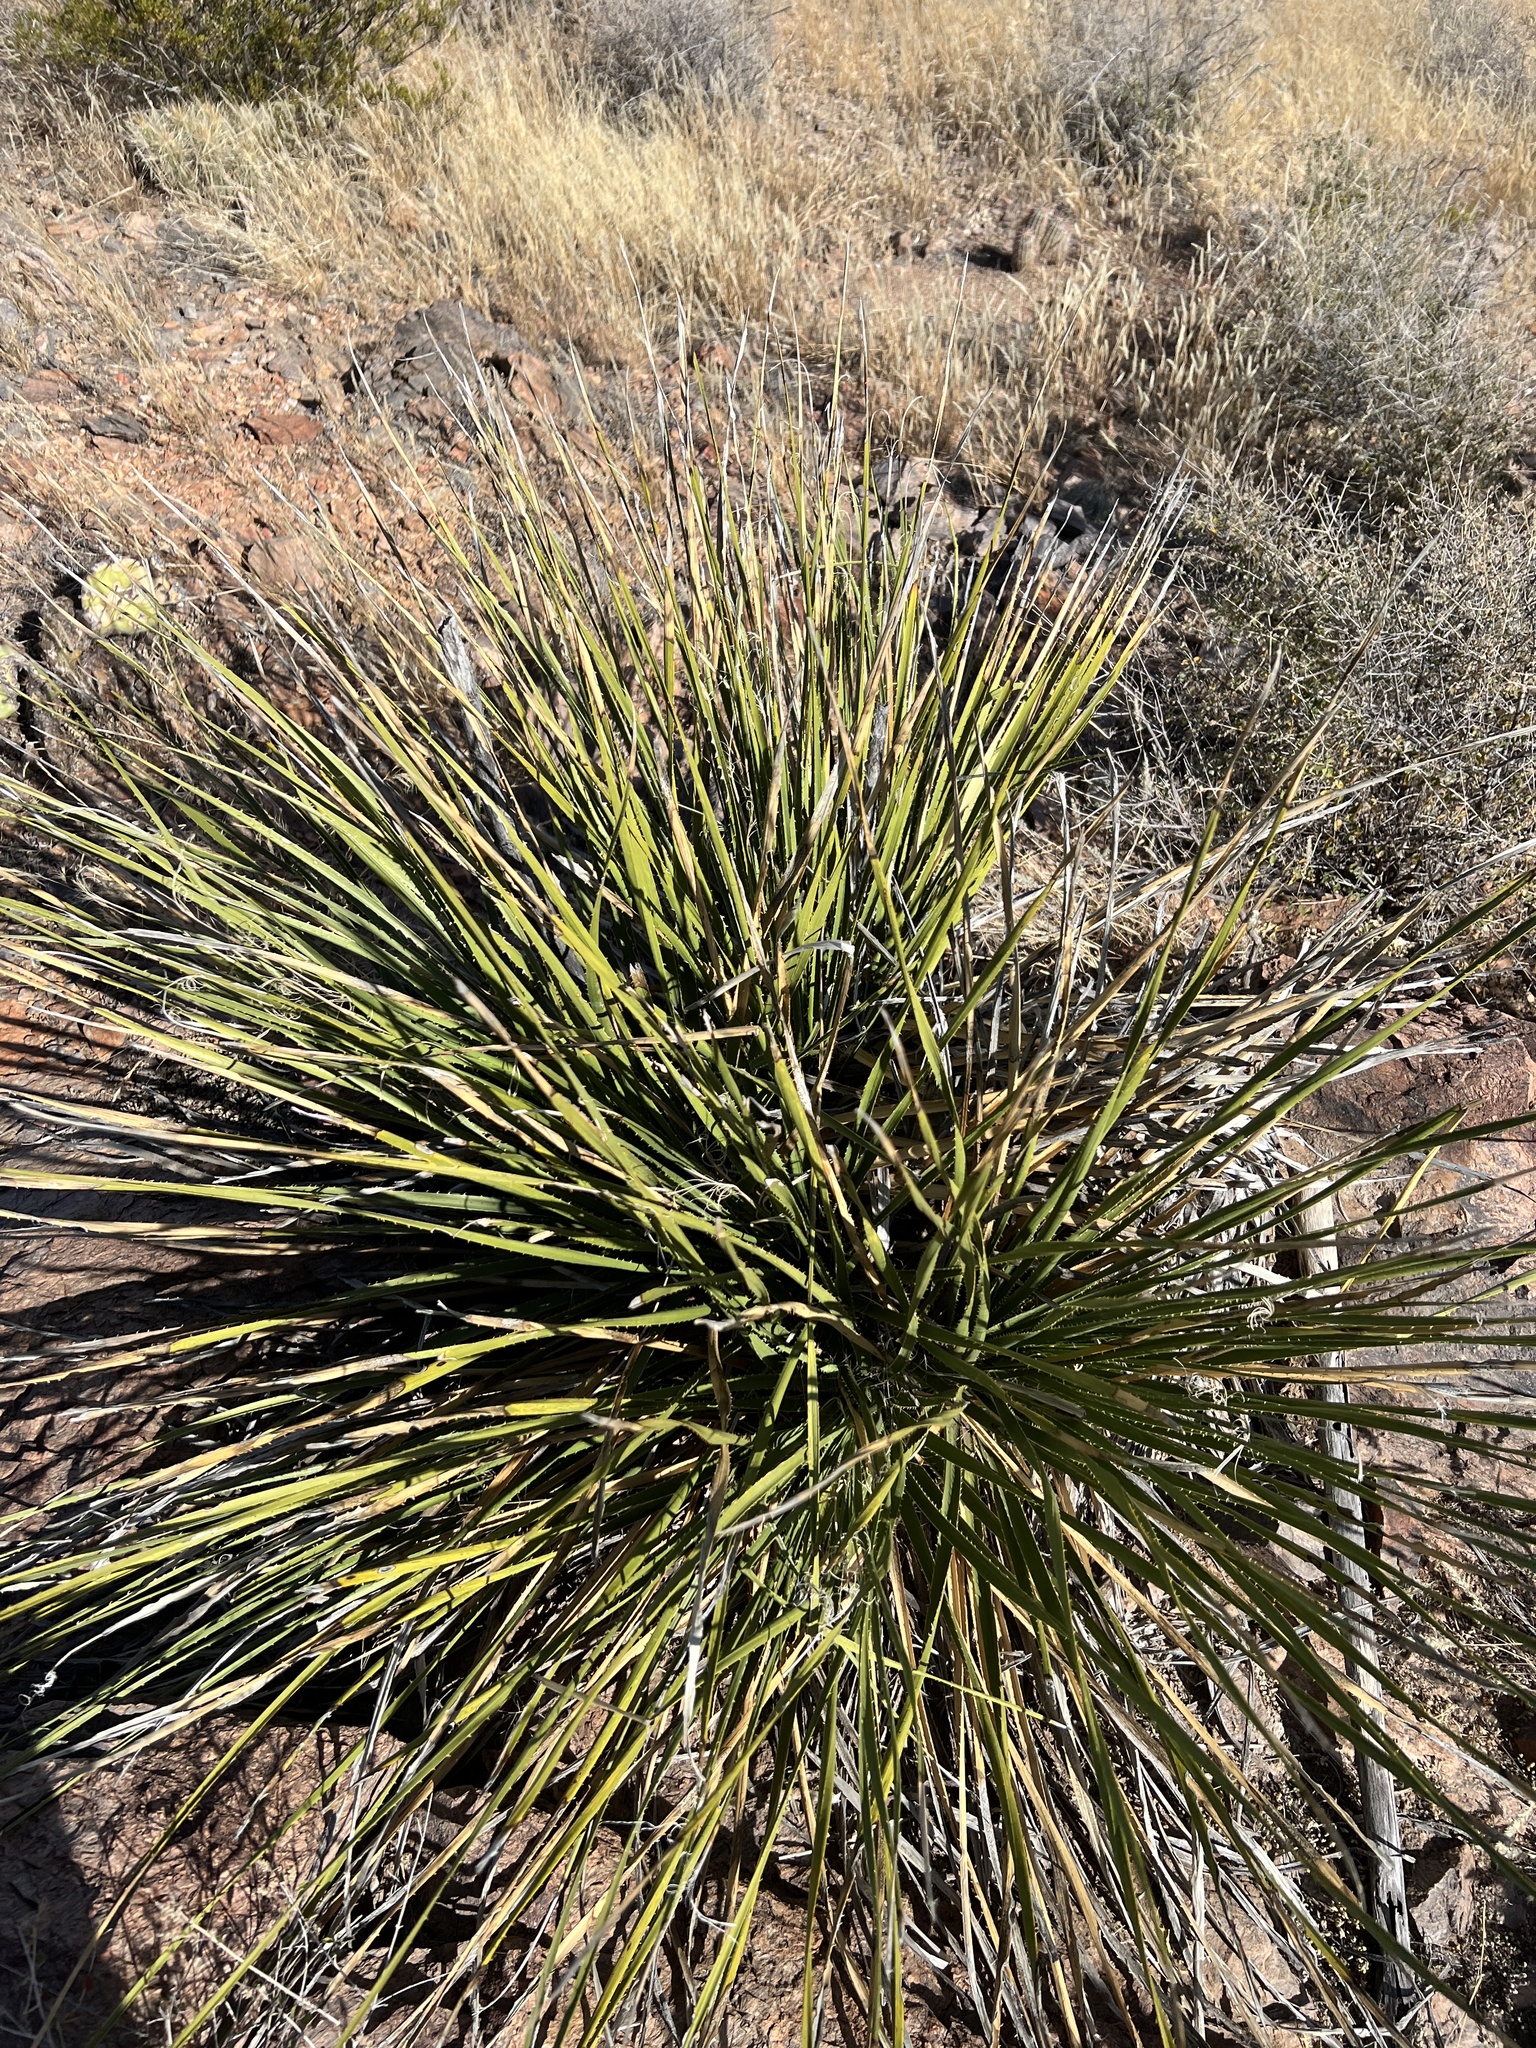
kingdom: Plantae
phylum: Tracheophyta
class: Liliopsida
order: Asparagales
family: Asparagaceae
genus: Dasylirion
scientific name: Dasylirion leiophyllum
